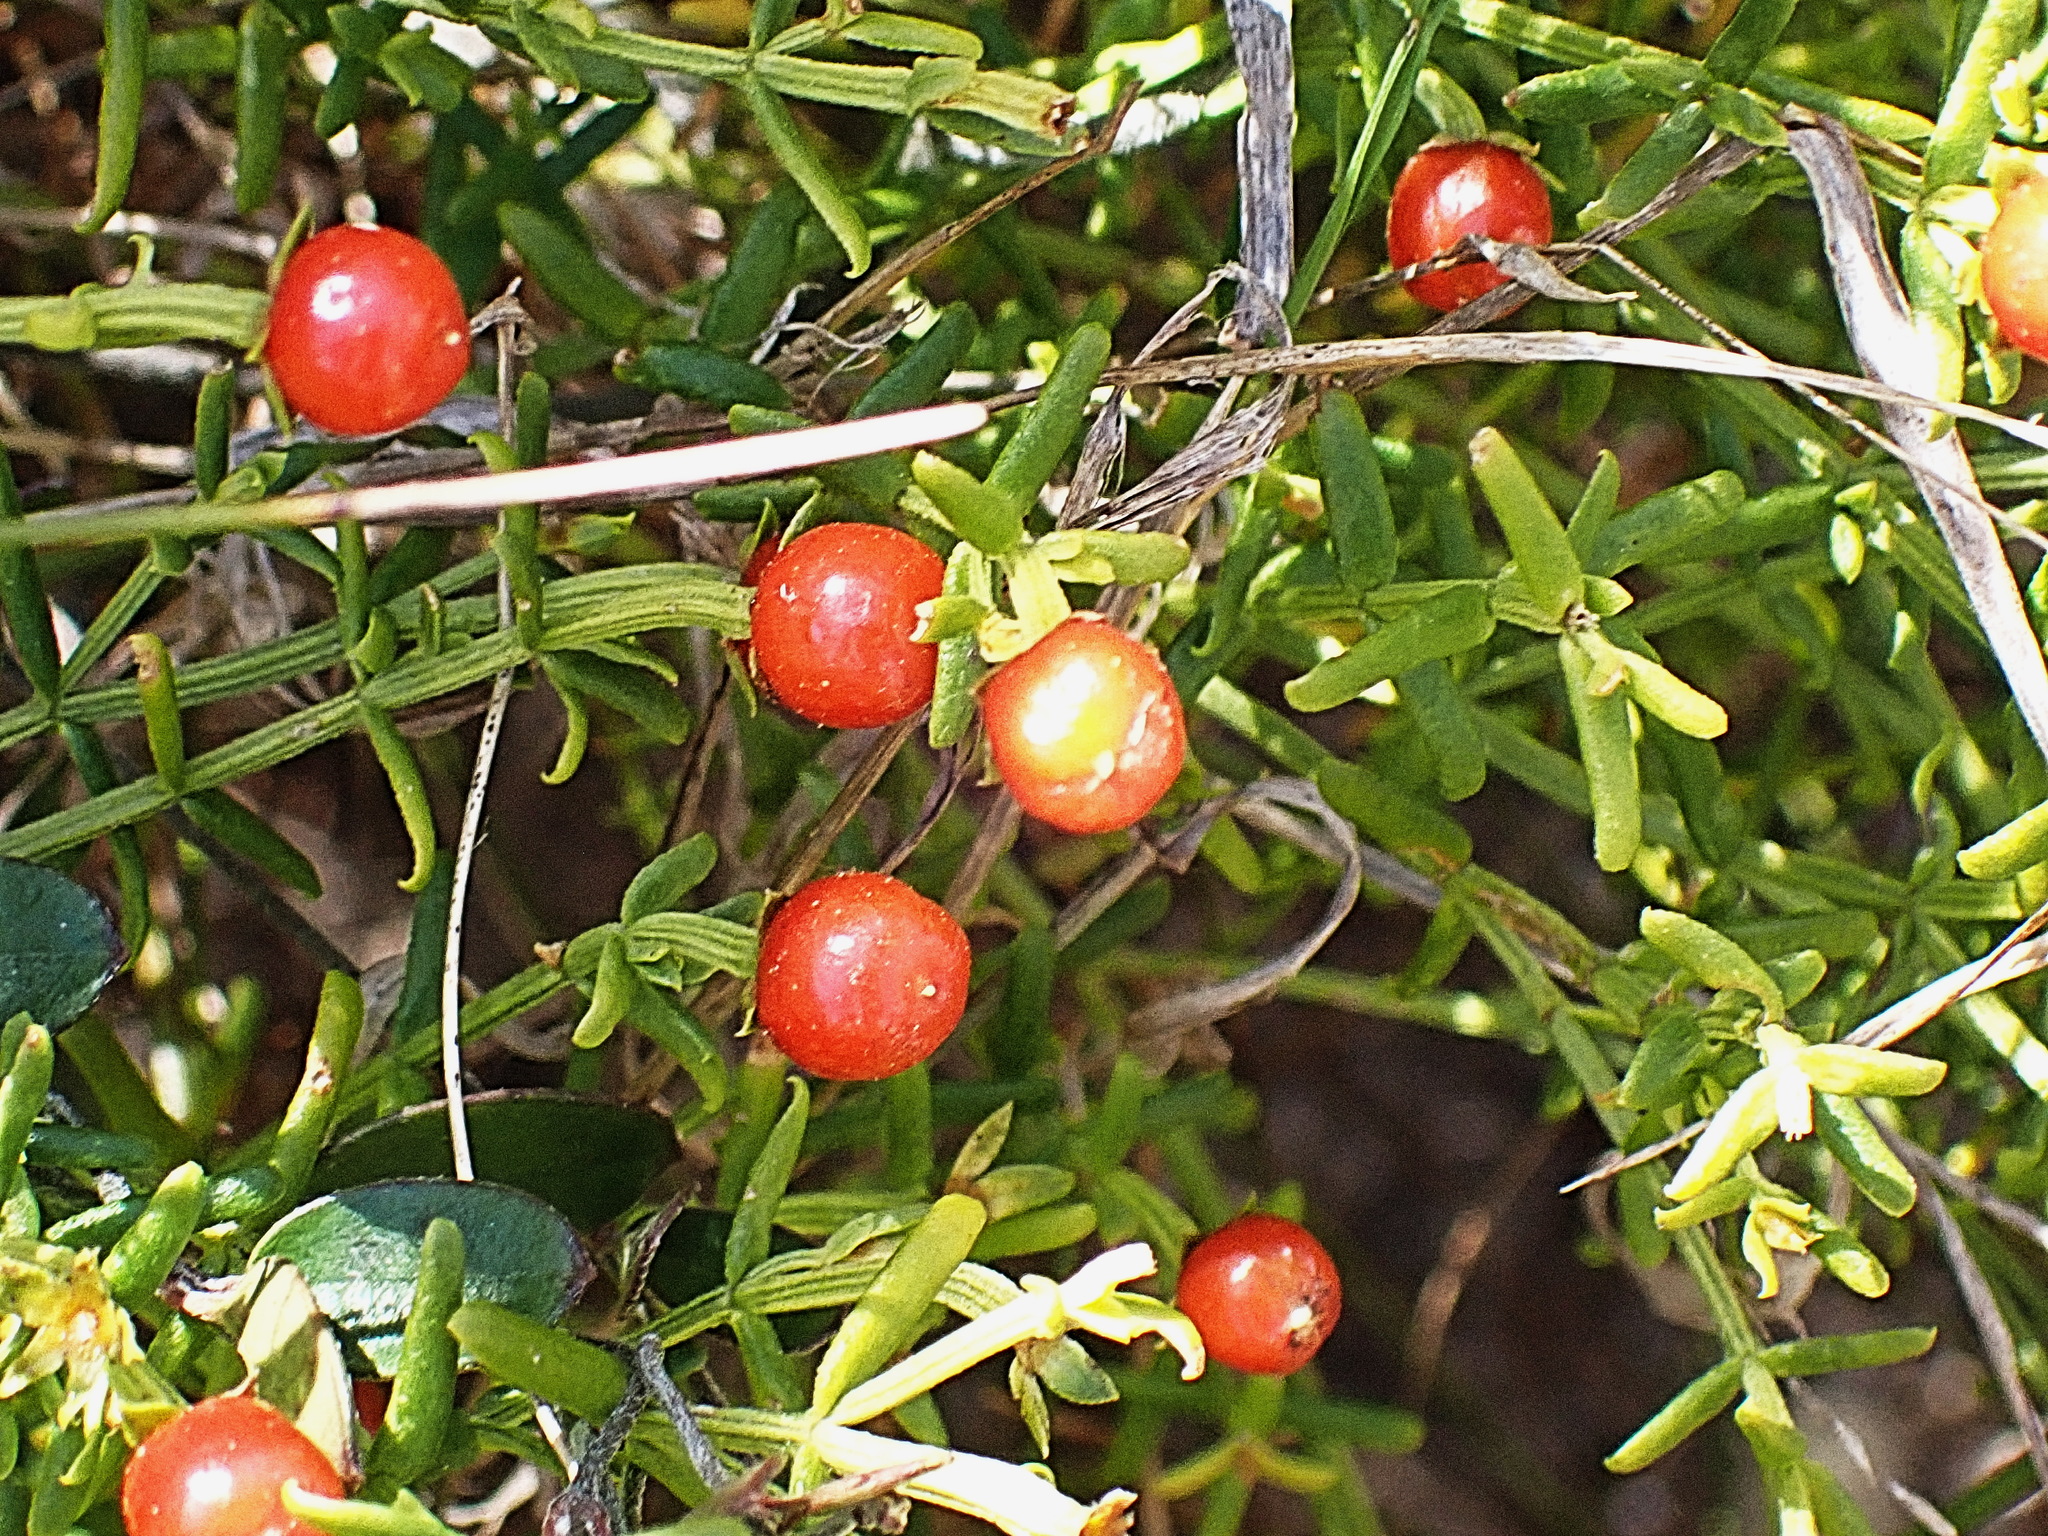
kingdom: Plantae
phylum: Tracheophyta
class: Magnoliopsida
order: Gentianales
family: Gentianaceae
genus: Chironia
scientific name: Chironia baccifera
